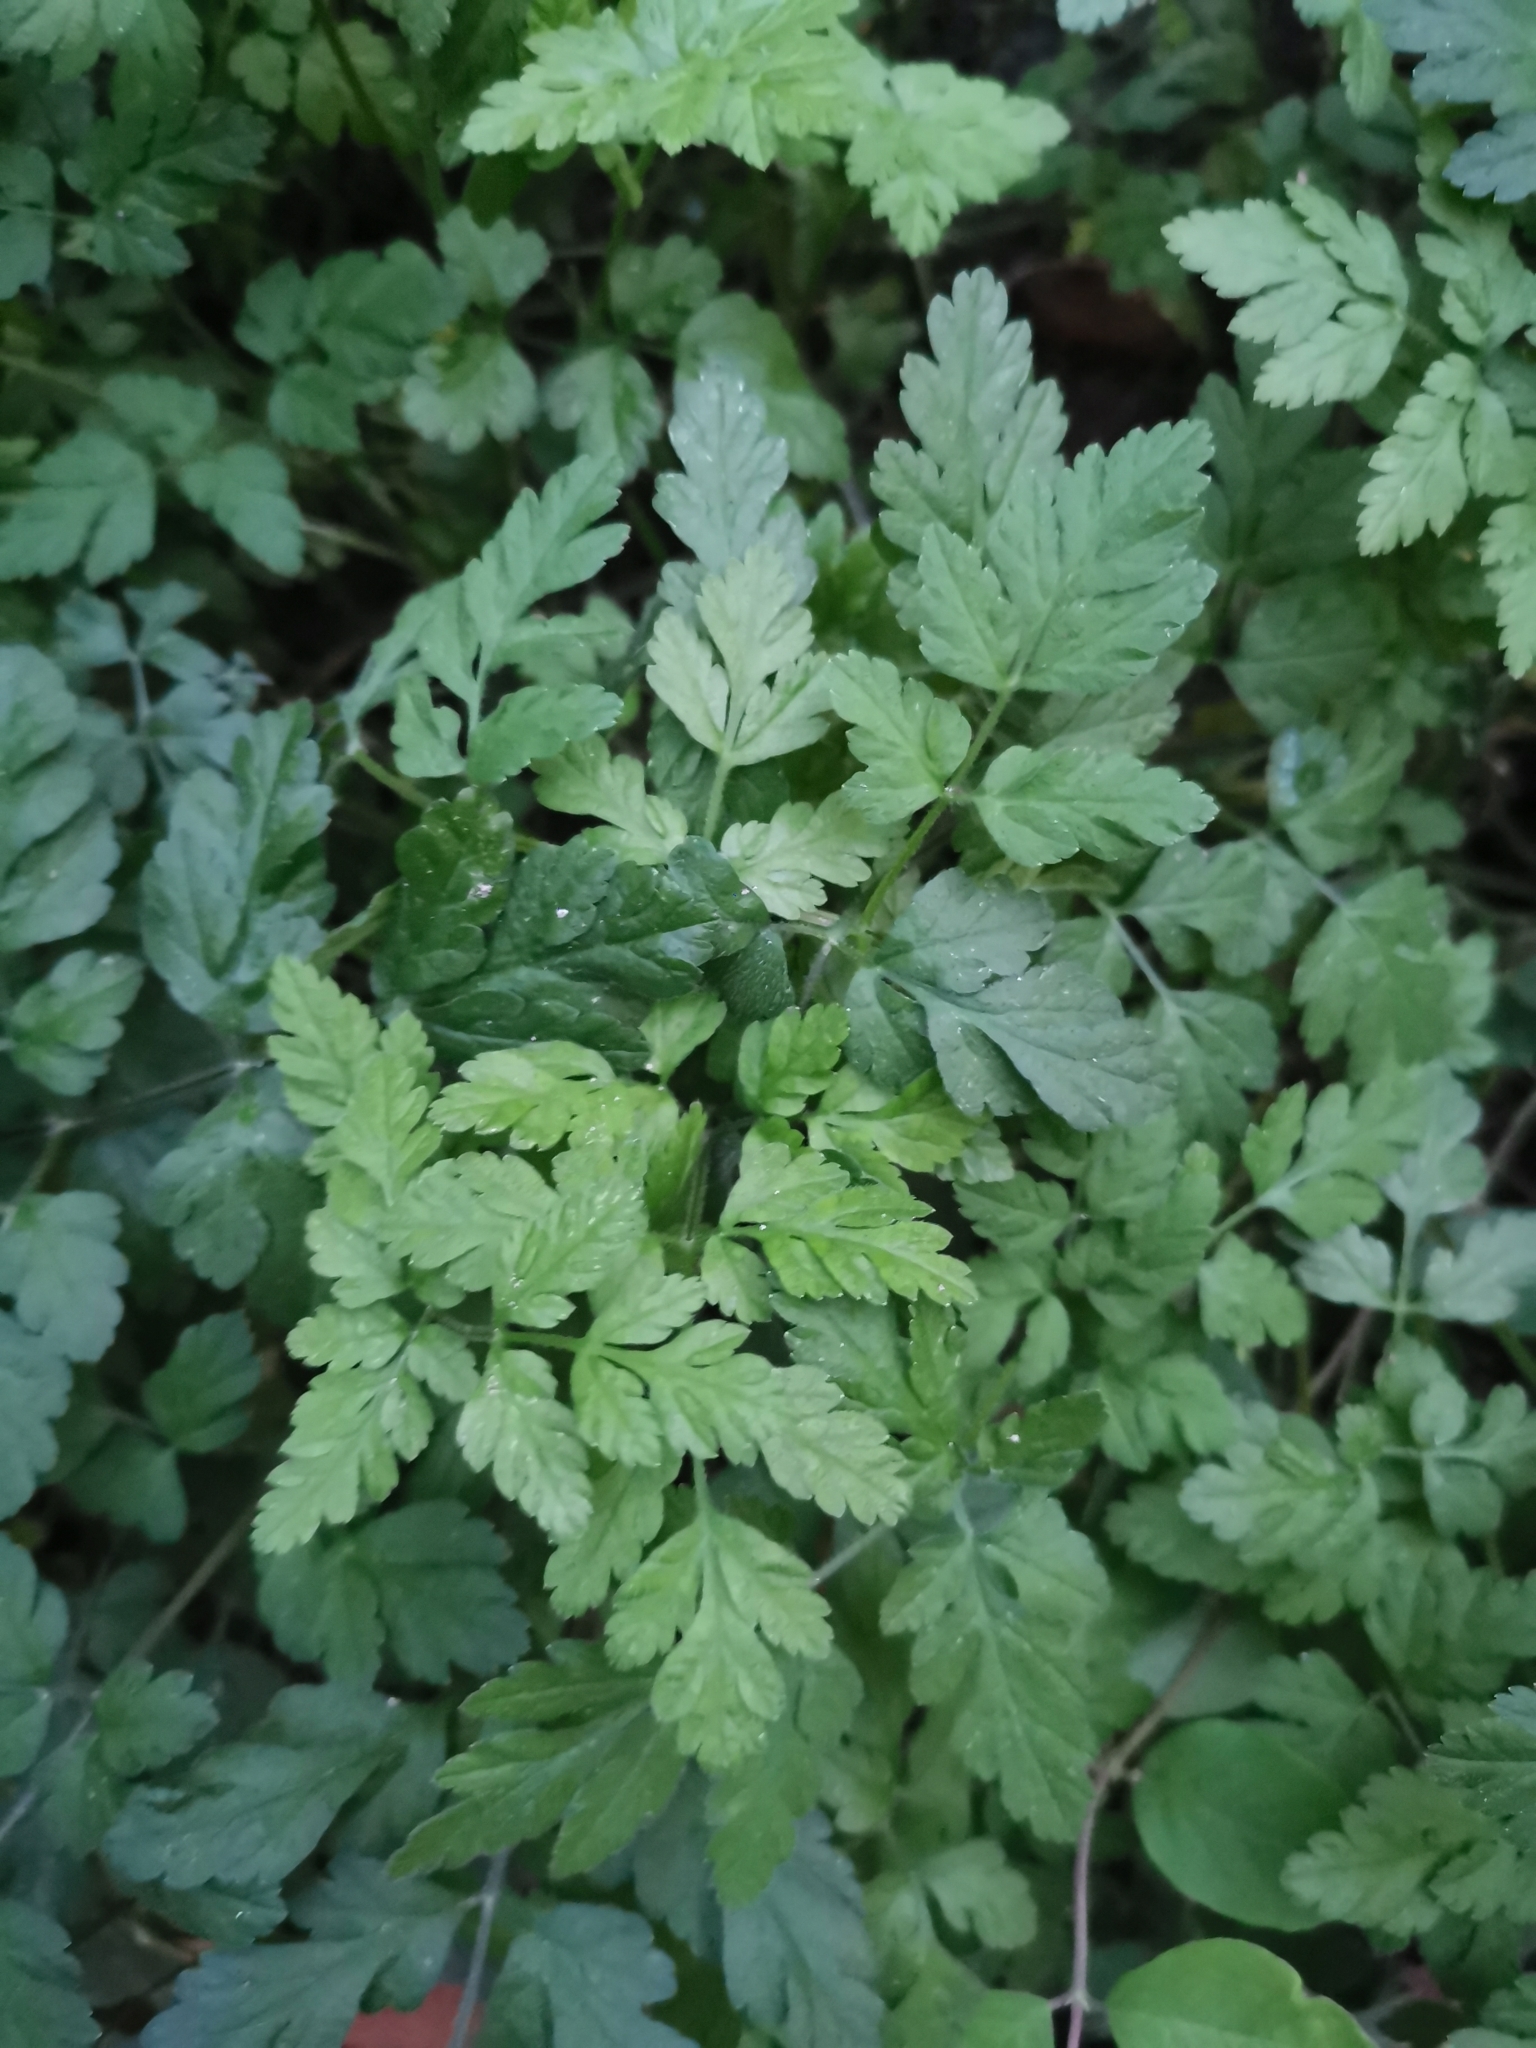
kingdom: Plantae
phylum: Tracheophyta
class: Magnoliopsida
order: Apiales
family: Apiaceae
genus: Chaerophyllum
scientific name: Chaerophyllum temulum
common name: Rough chervil
